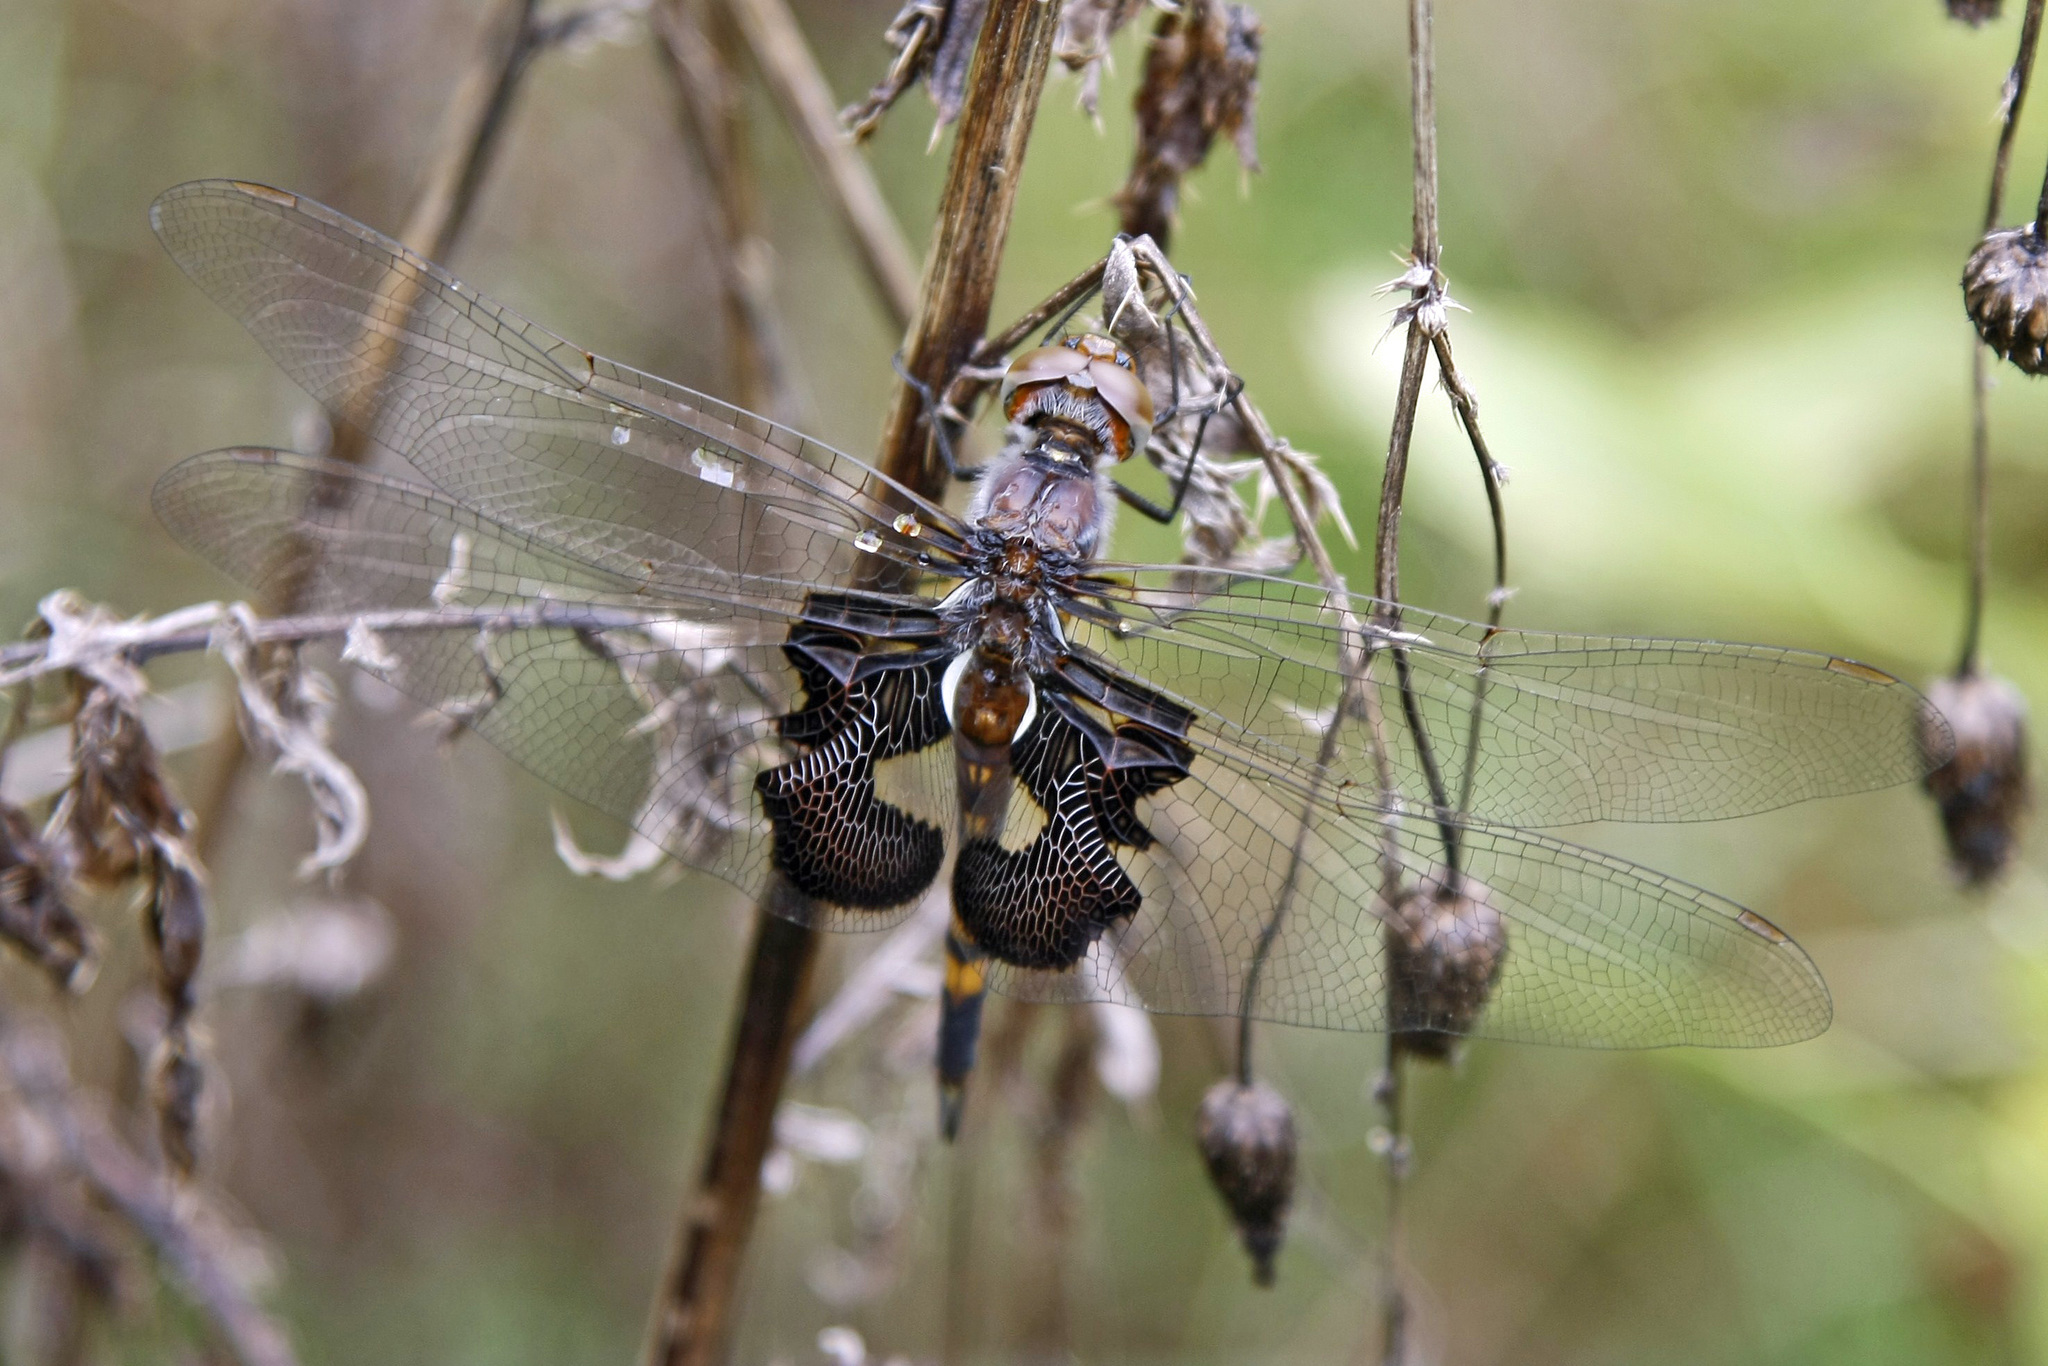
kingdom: Animalia
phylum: Arthropoda
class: Insecta
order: Odonata
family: Libellulidae
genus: Tramea
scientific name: Tramea lacerata
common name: Black saddlebags
